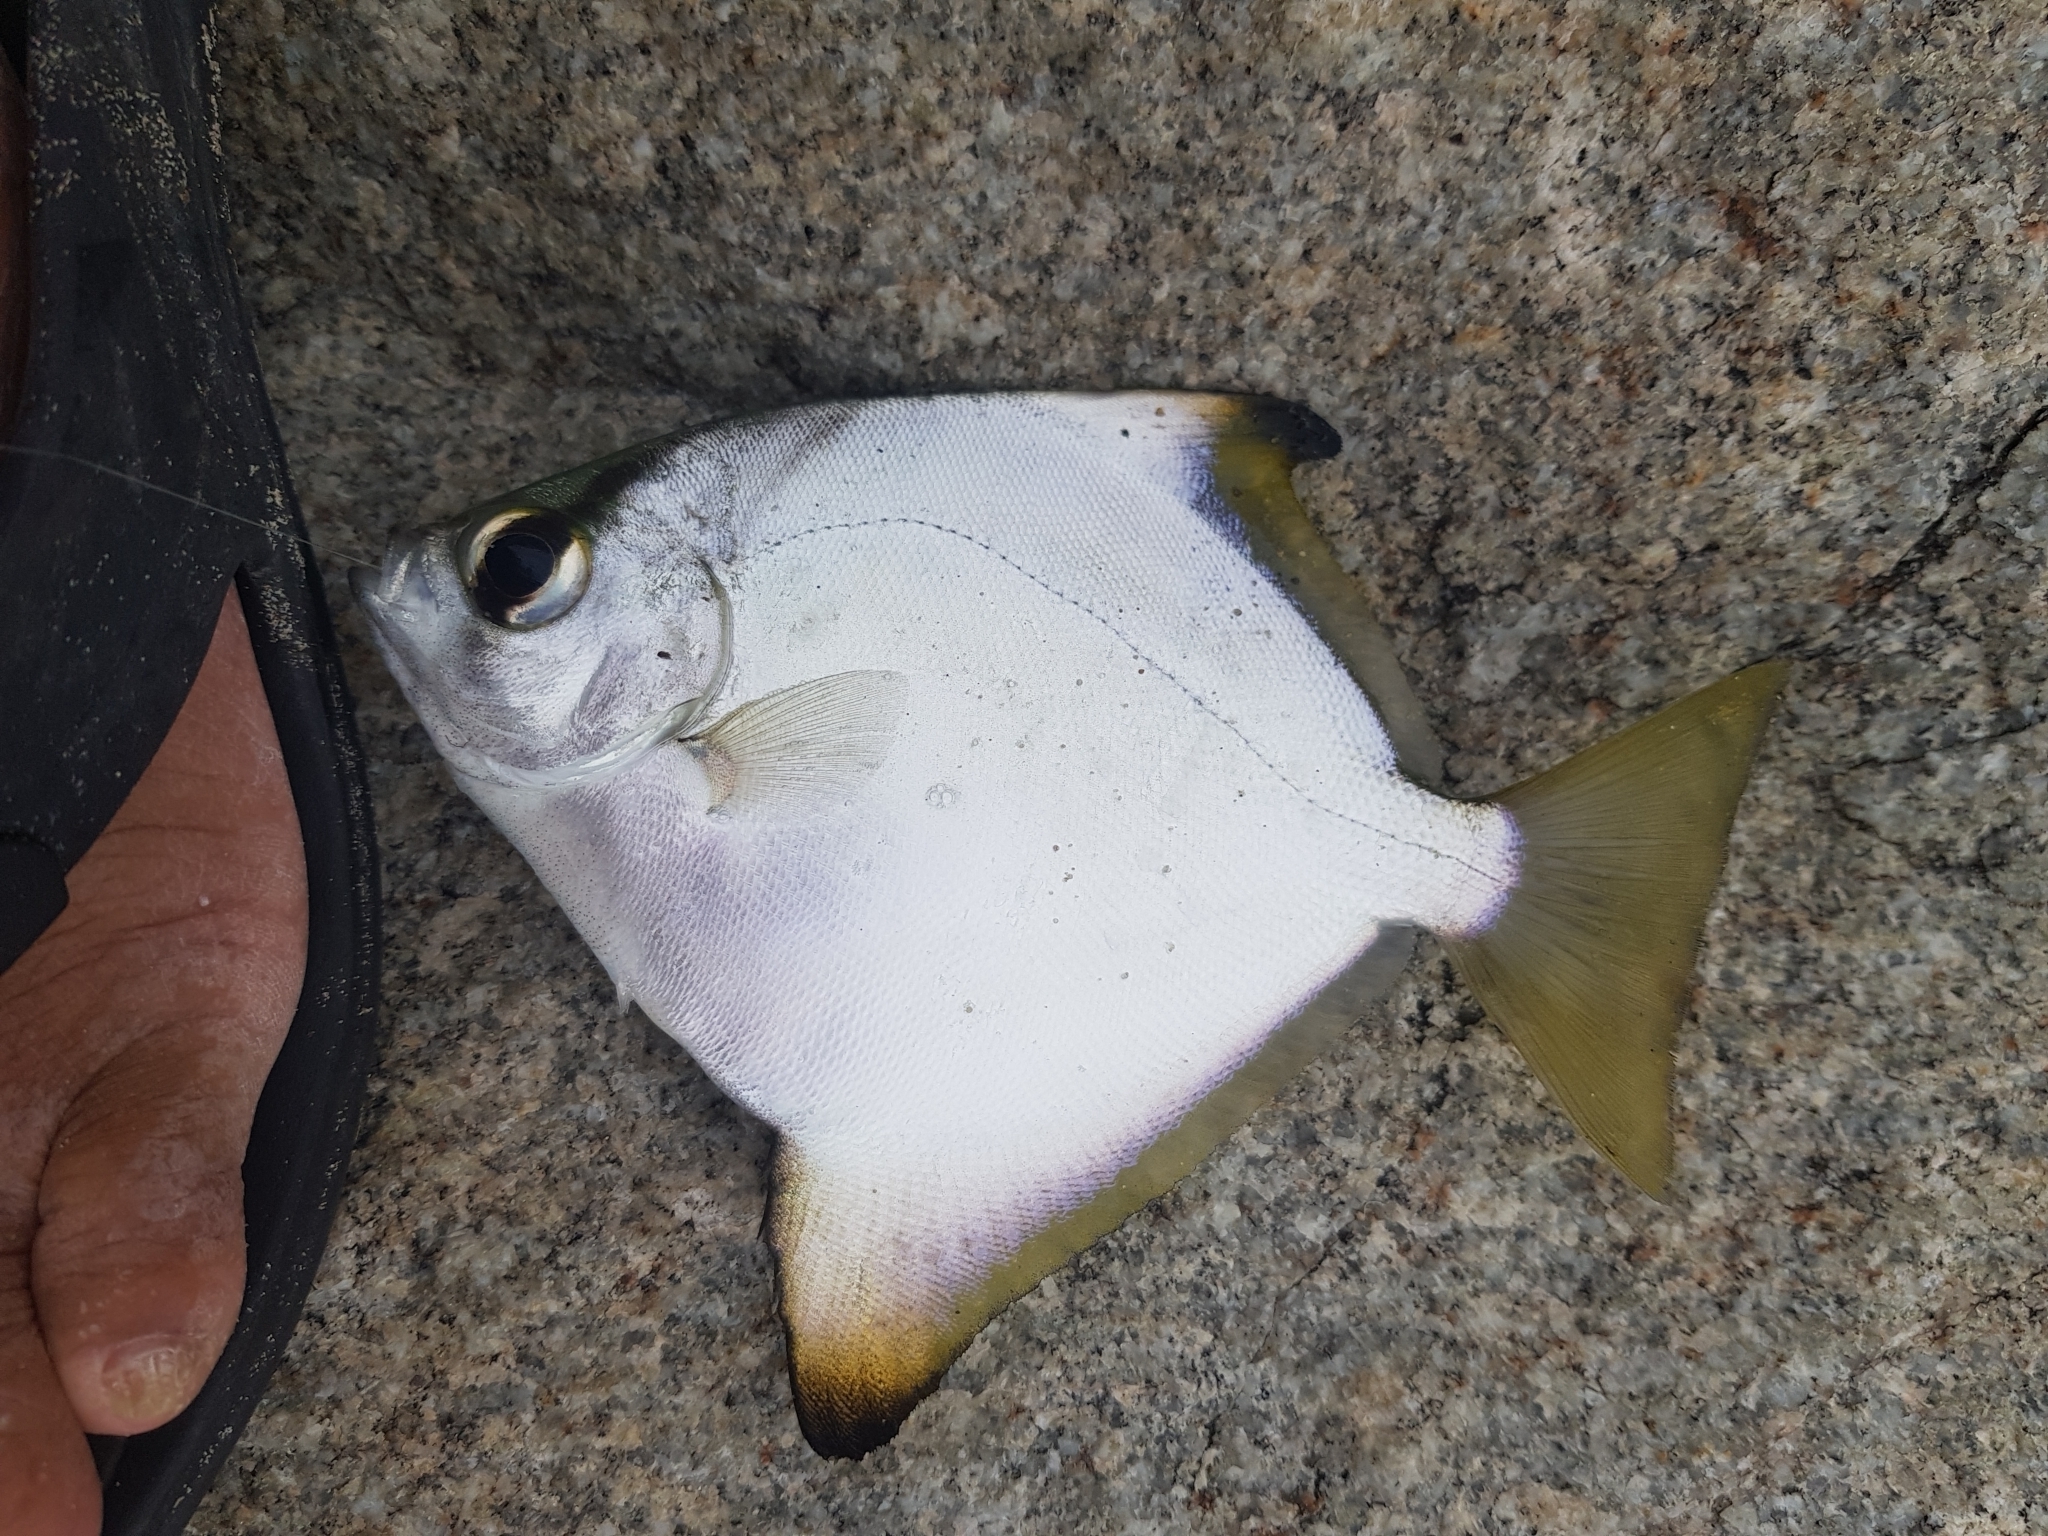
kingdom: Animalia
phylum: Chordata
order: Perciformes
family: Monodactylidae
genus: Monodactylus
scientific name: Monodactylus argenteus
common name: Silver moony
